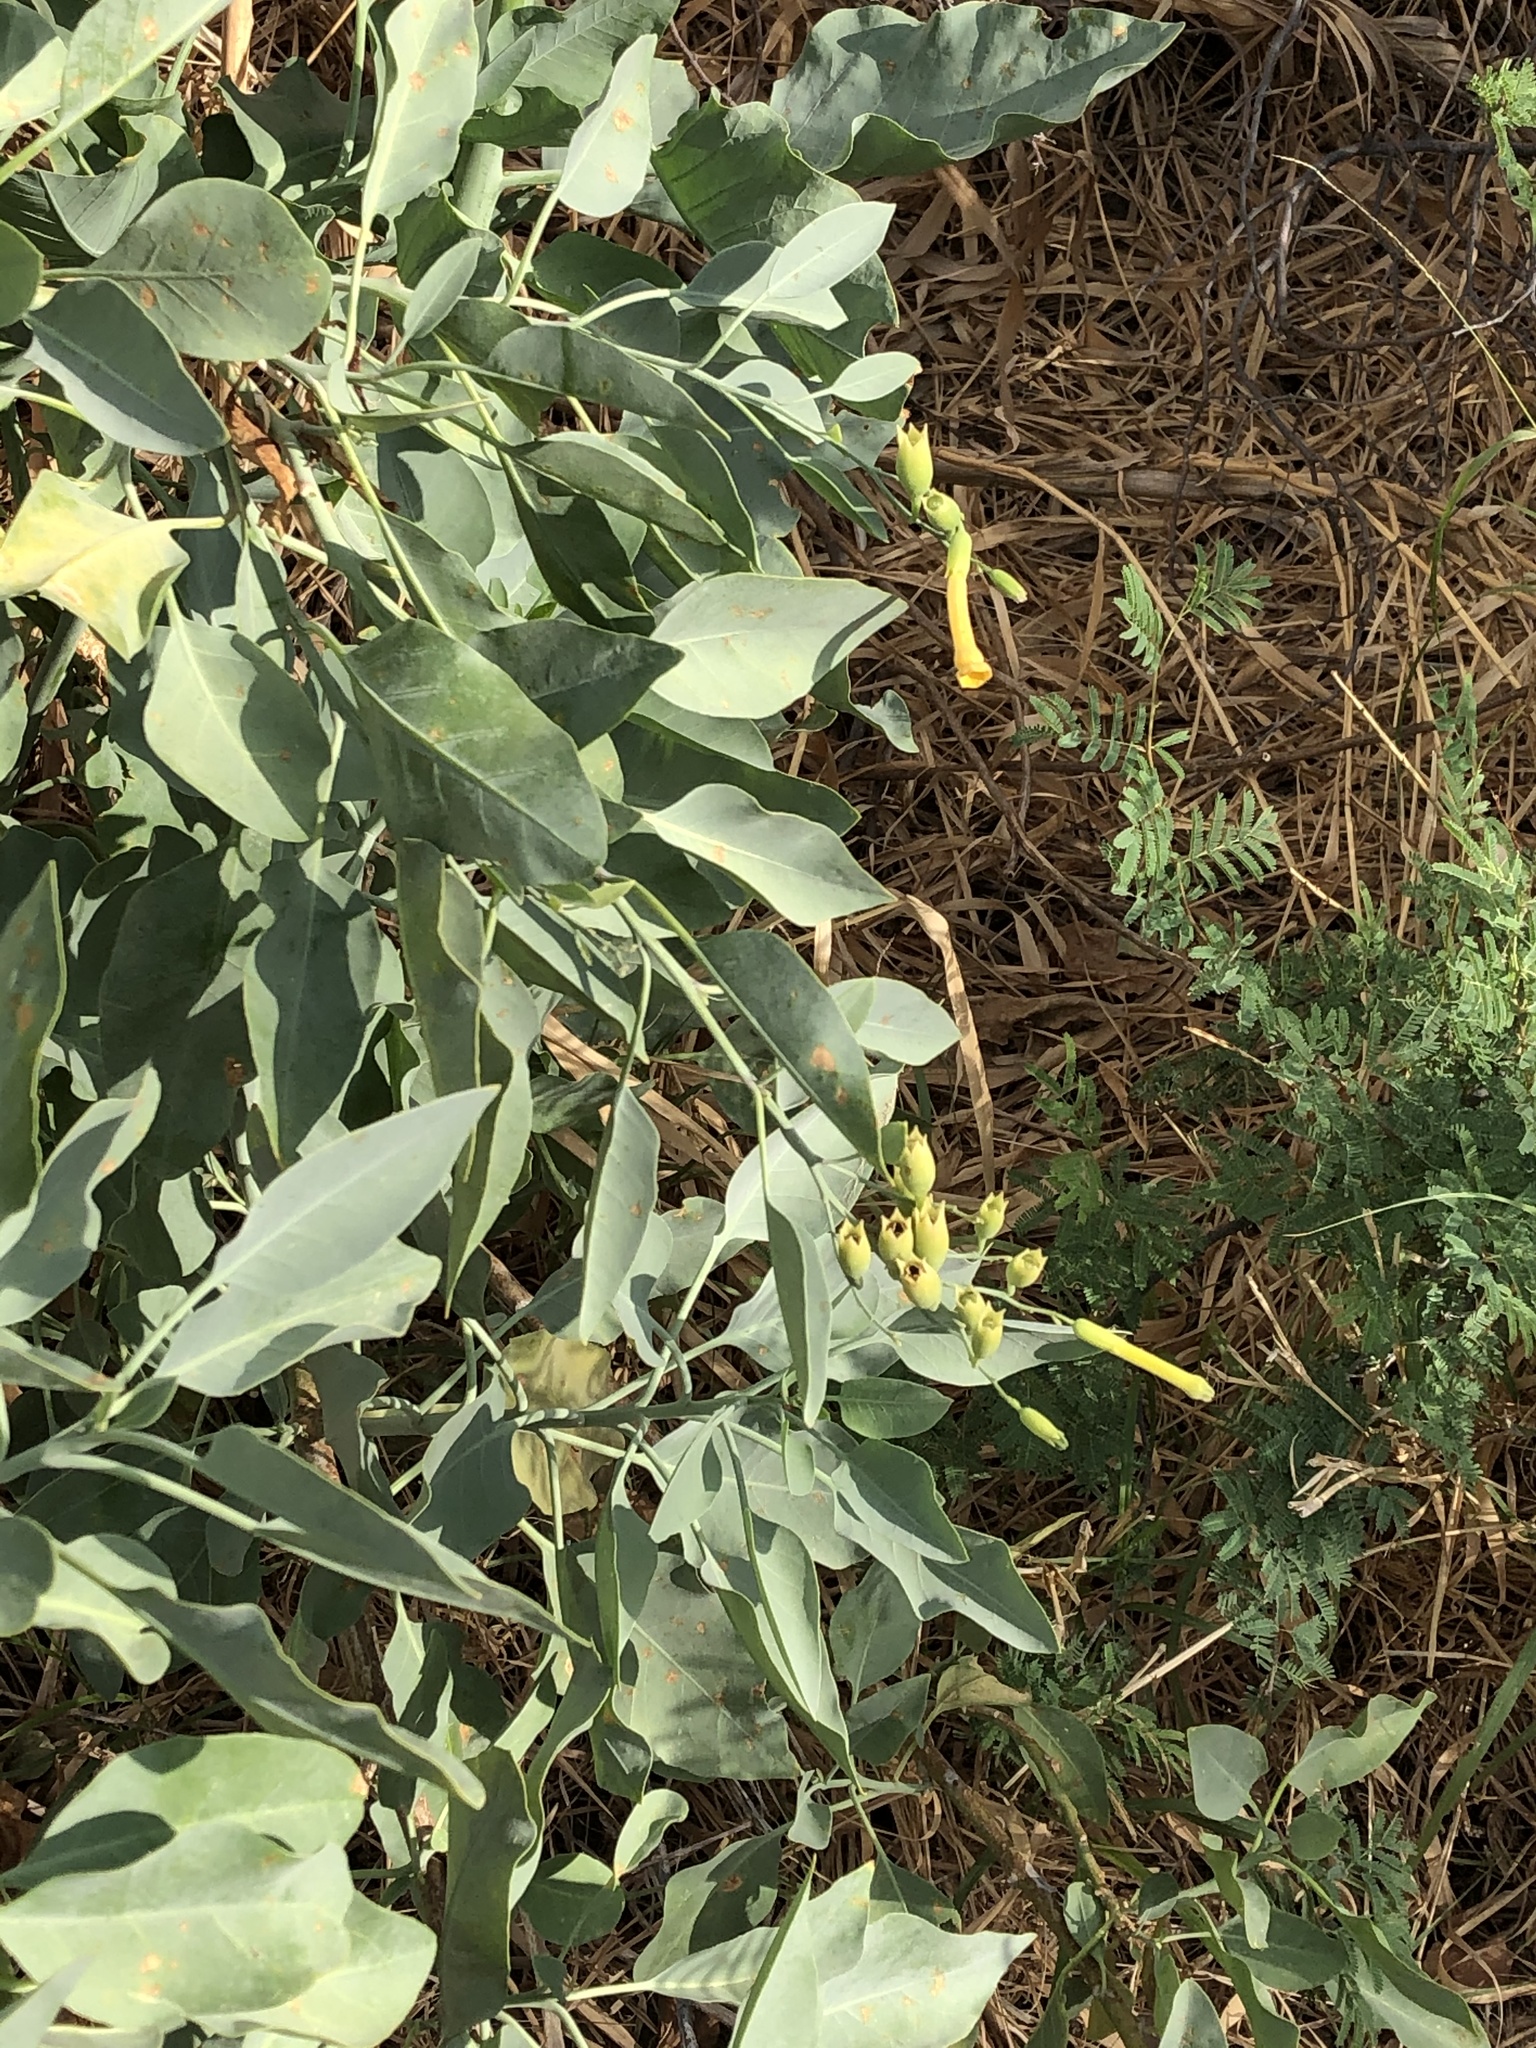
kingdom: Plantae
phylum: Tracheophyta
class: Magnoliopsida
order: Solanales
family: Solanaceae
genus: Nicotiana
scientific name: Nicotiana glauca
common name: Tree tobacco
